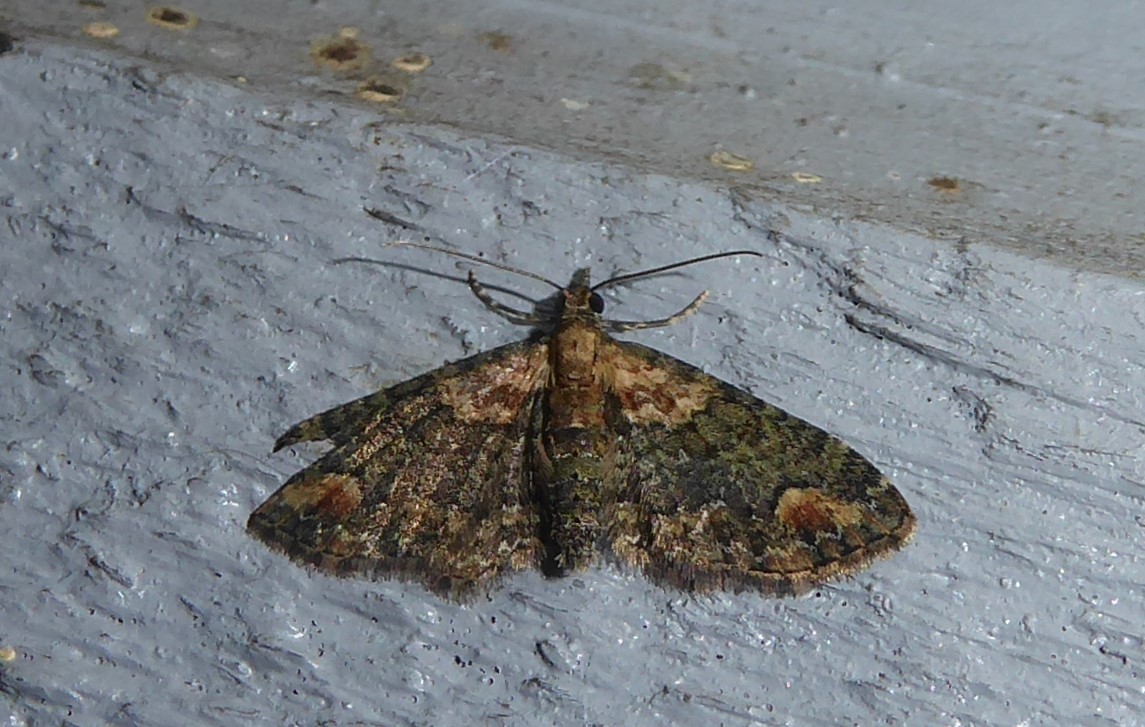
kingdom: Animalia
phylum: Arthropoda
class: Insecta
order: Lepidoptera
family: Geometridae
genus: Pasiphilodes
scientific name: Pasiphilodes testulata
